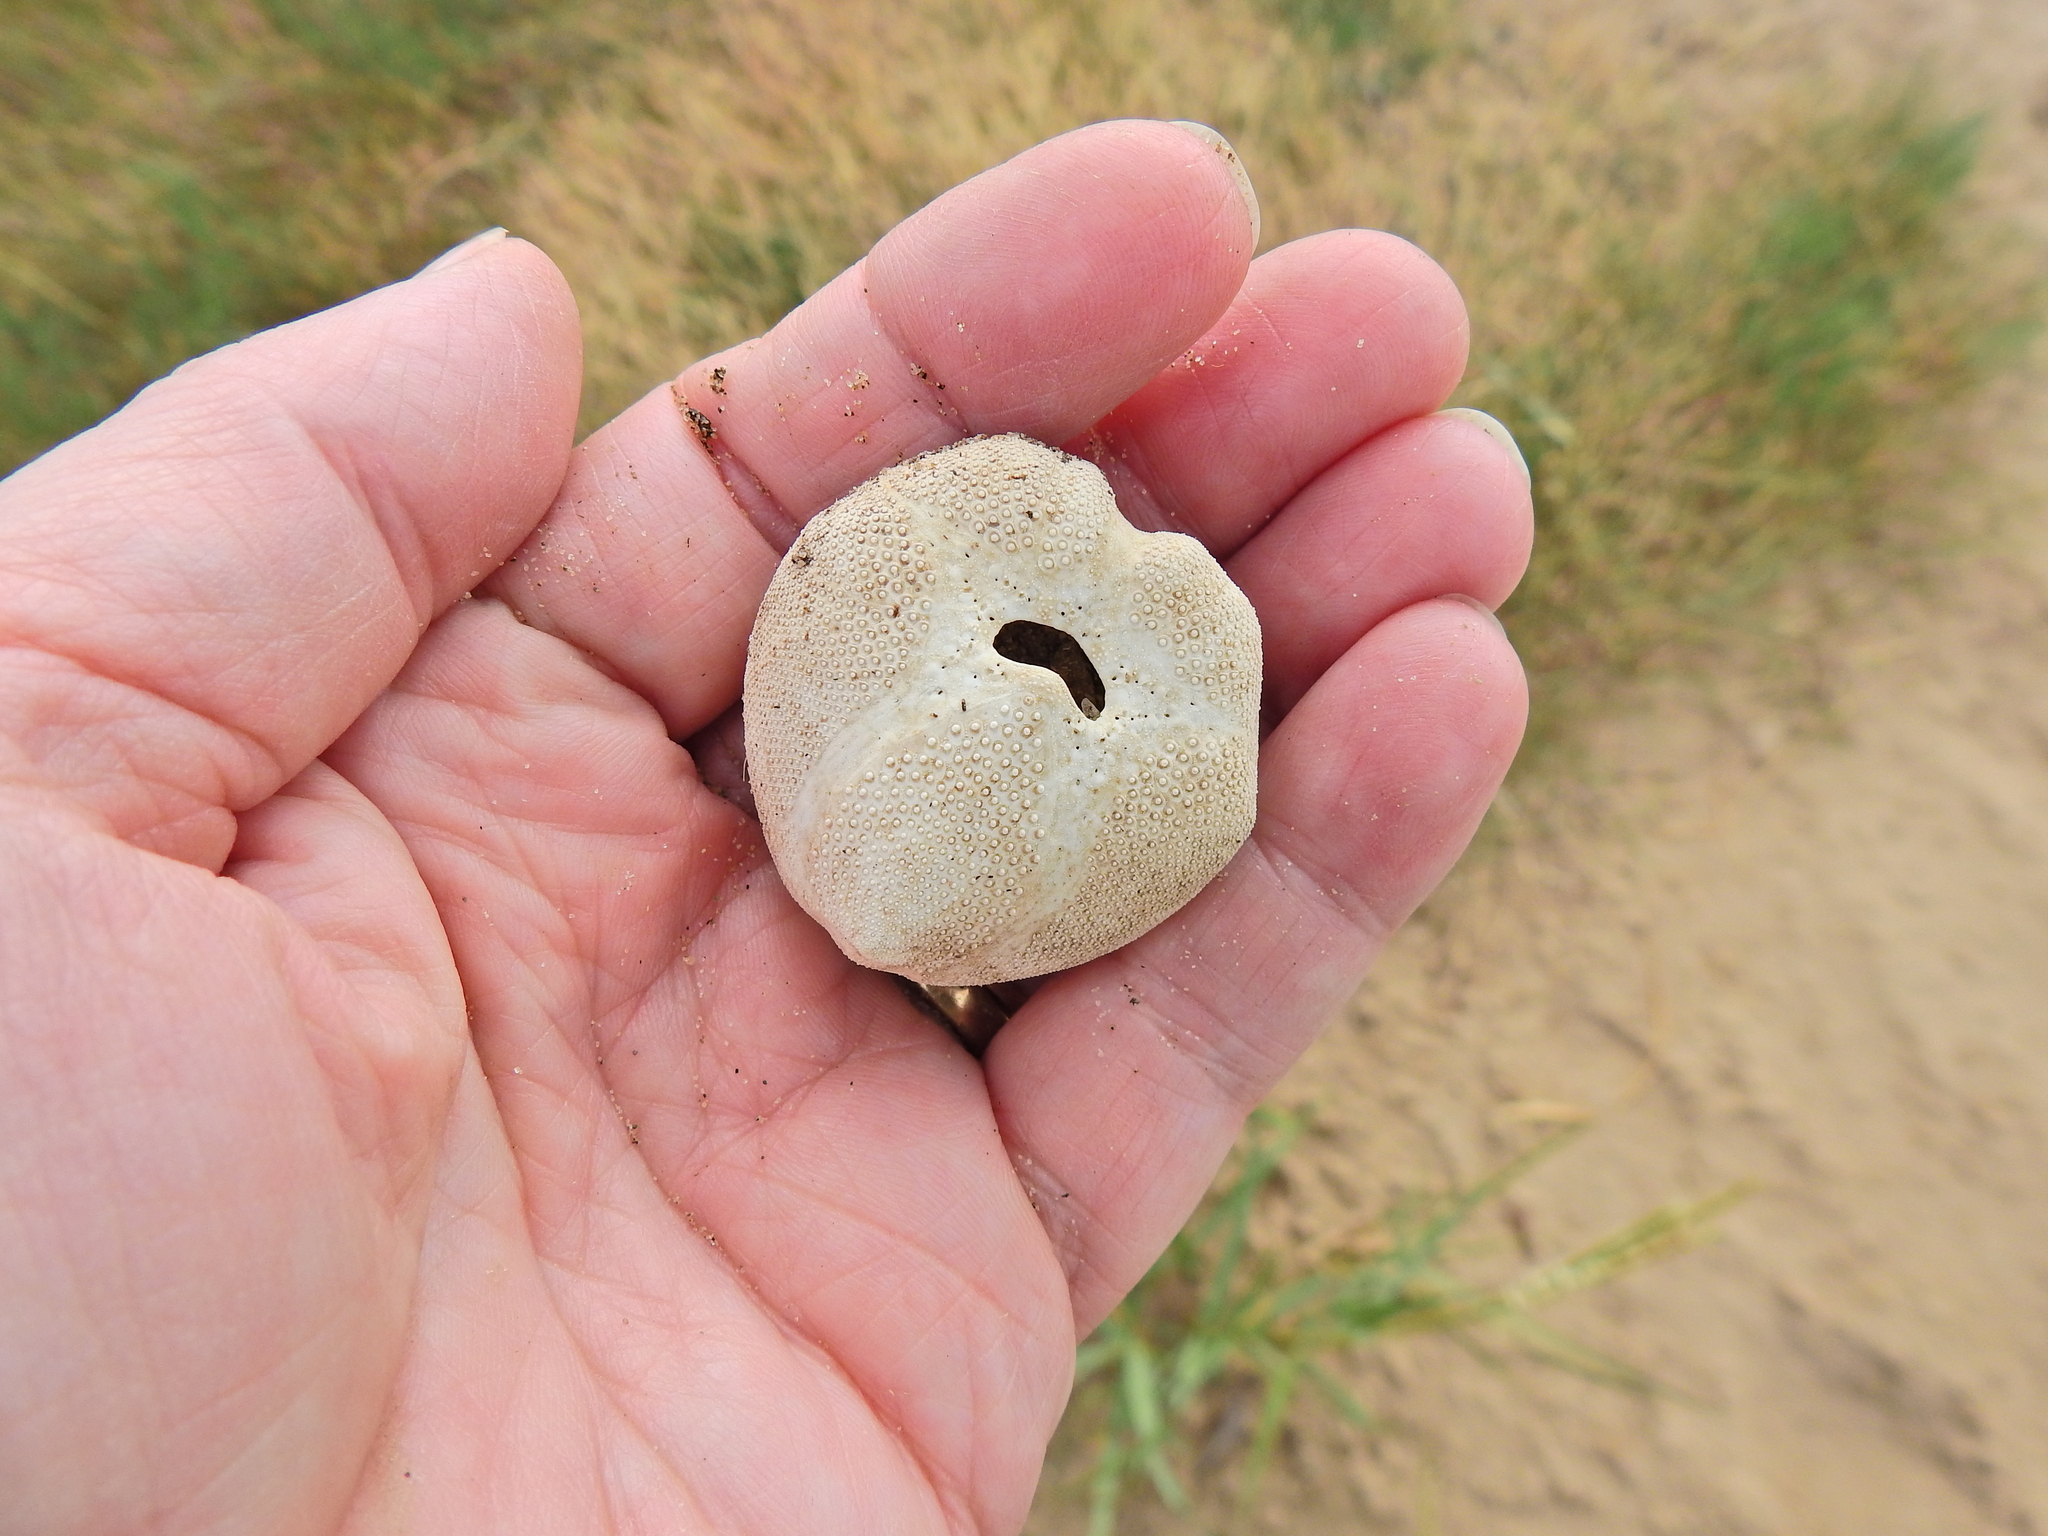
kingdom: Animalia
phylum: Echinodermata
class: Echinoidea
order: Spatangoida
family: Loveniidae
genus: Echinocardium
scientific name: Echinocardium cordatum
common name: Heart-urchin
